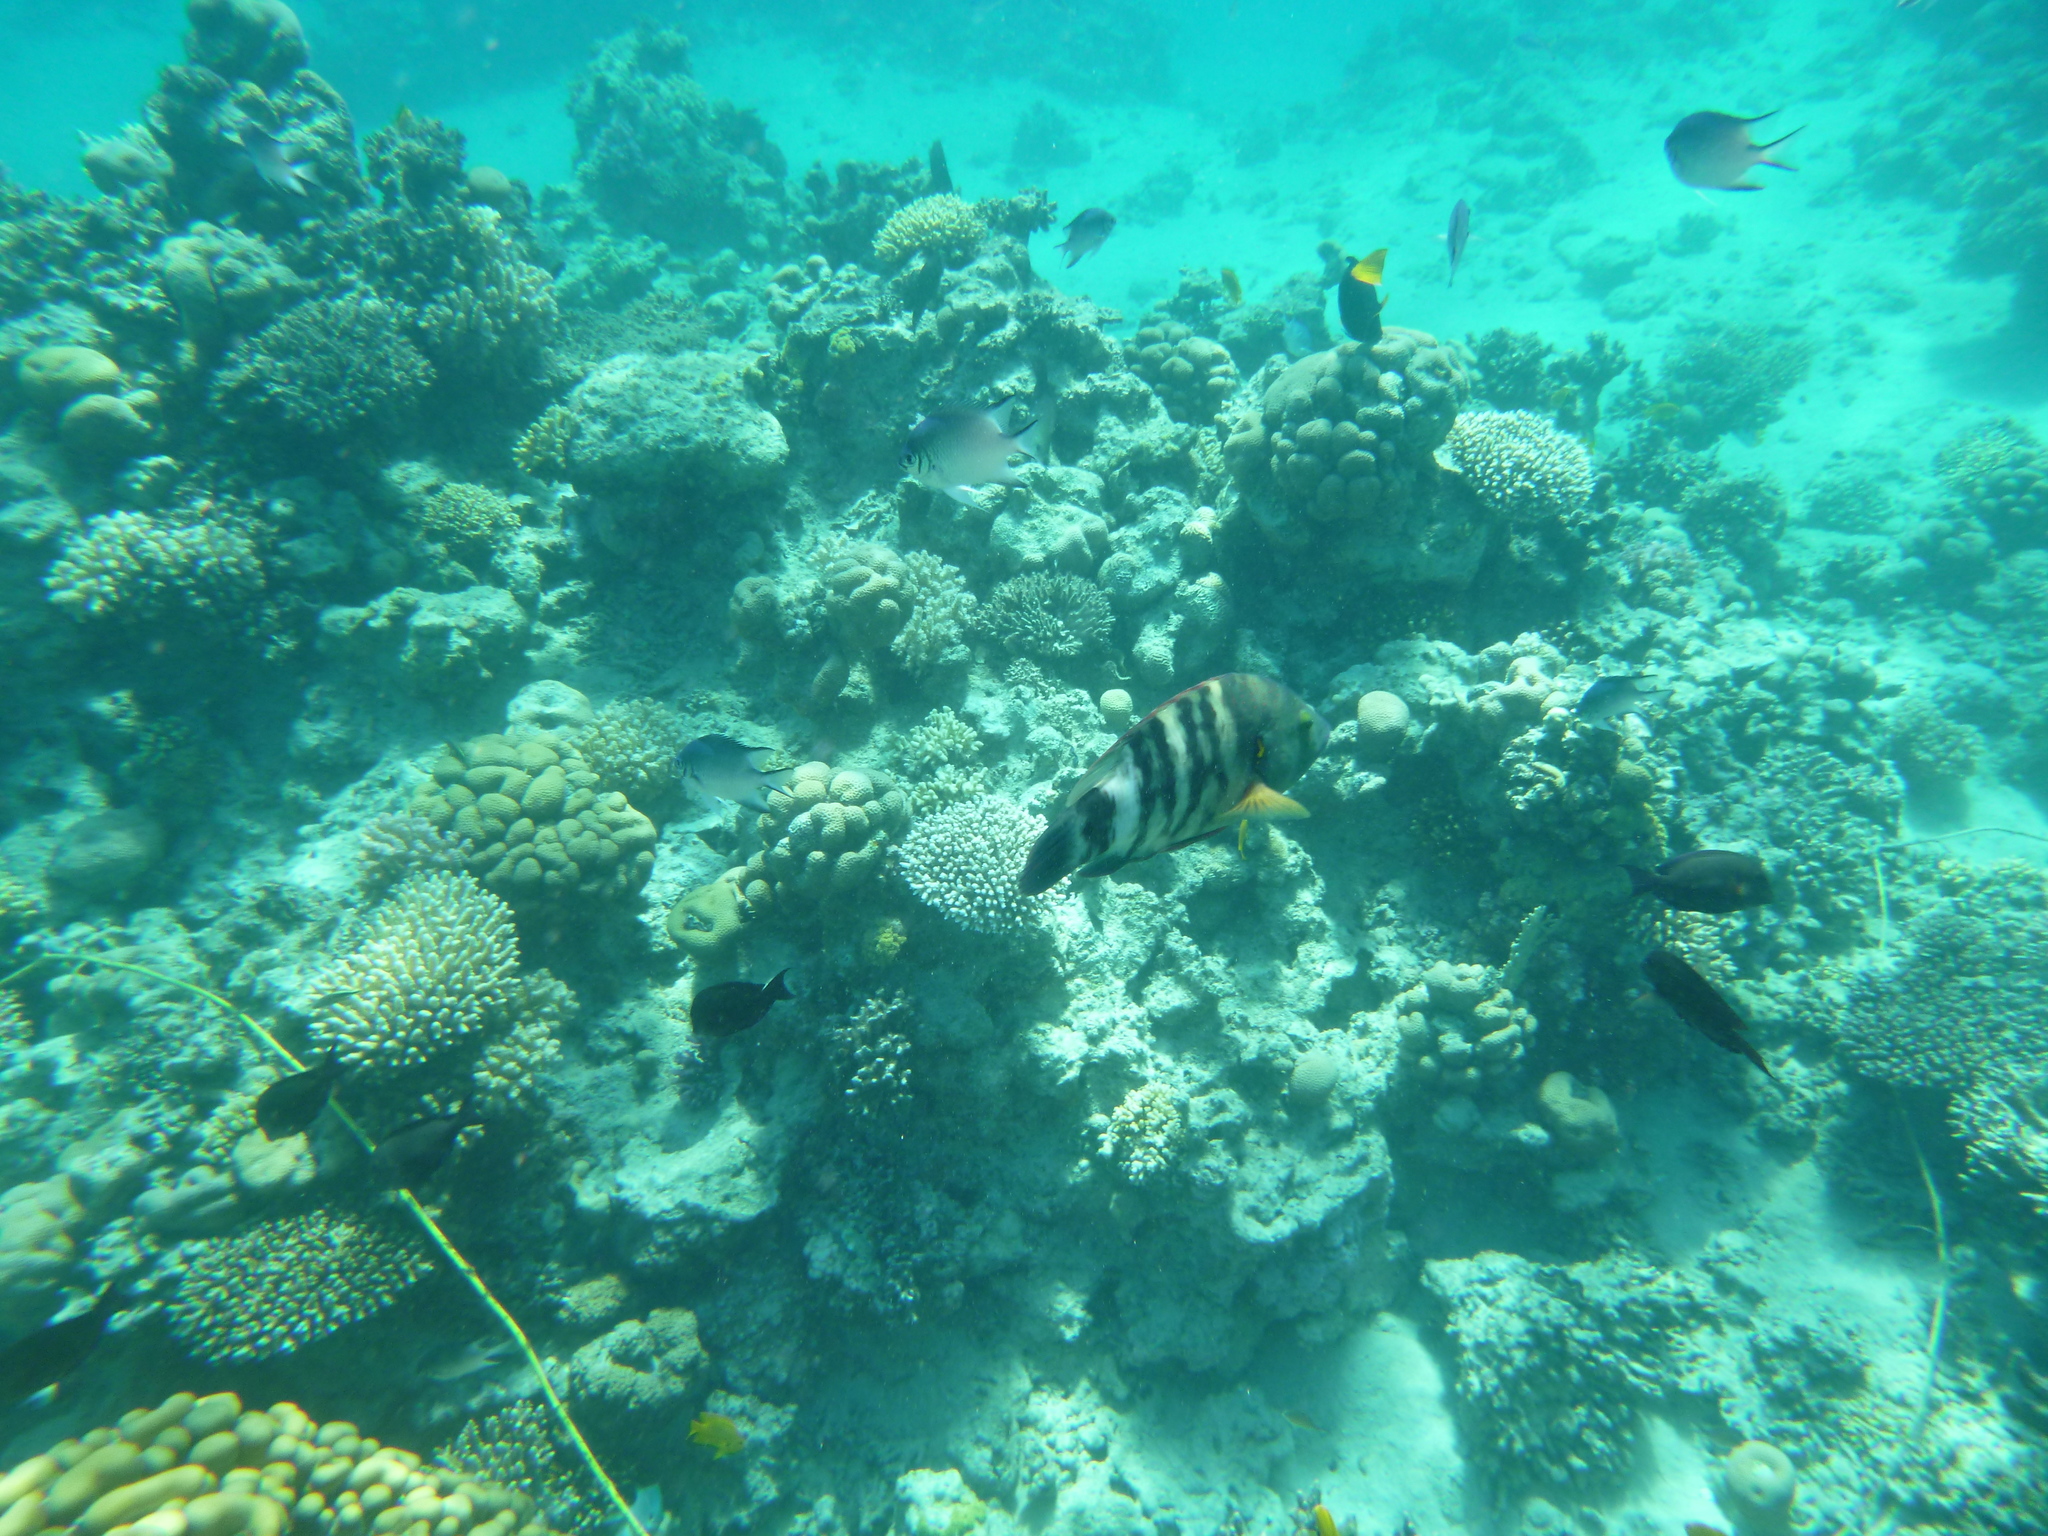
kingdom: Animalia
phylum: Chordata
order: Perciformes
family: Labridae
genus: Cheilinus
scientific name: Cheilinus lunulatus
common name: Broomtail wrasse
